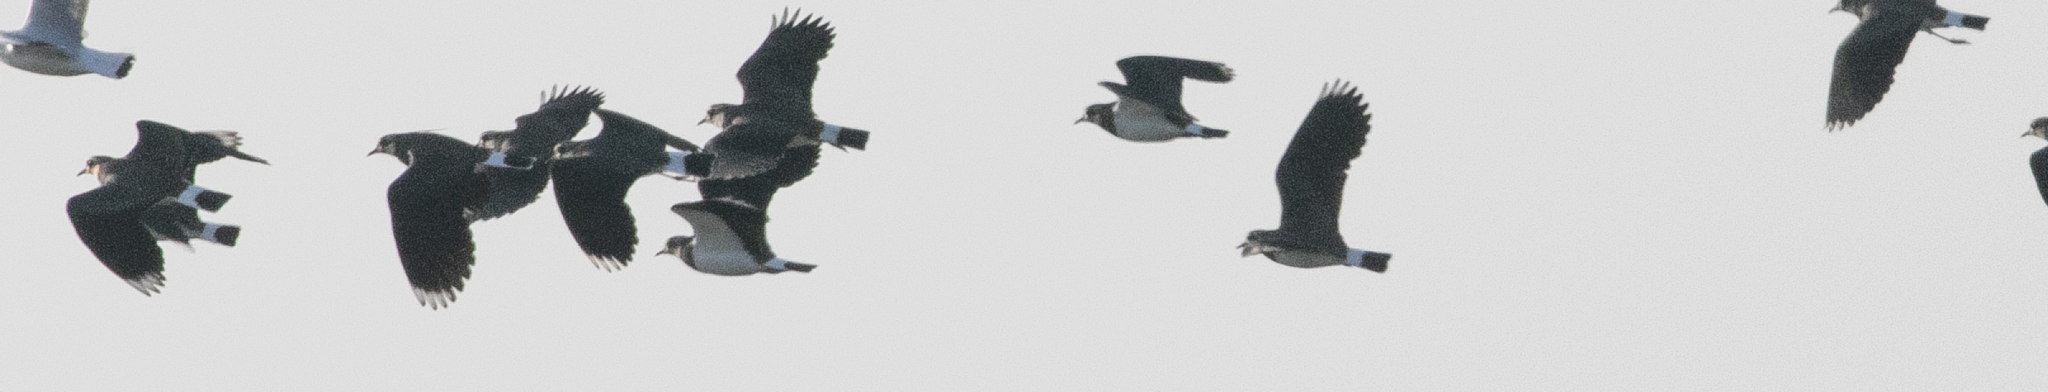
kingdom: Animalia
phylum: Chordata
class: Aves
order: Charadriiformes
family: Charadriidae
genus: Vanellus
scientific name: Vanellus vanellus
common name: Northern lapwing
